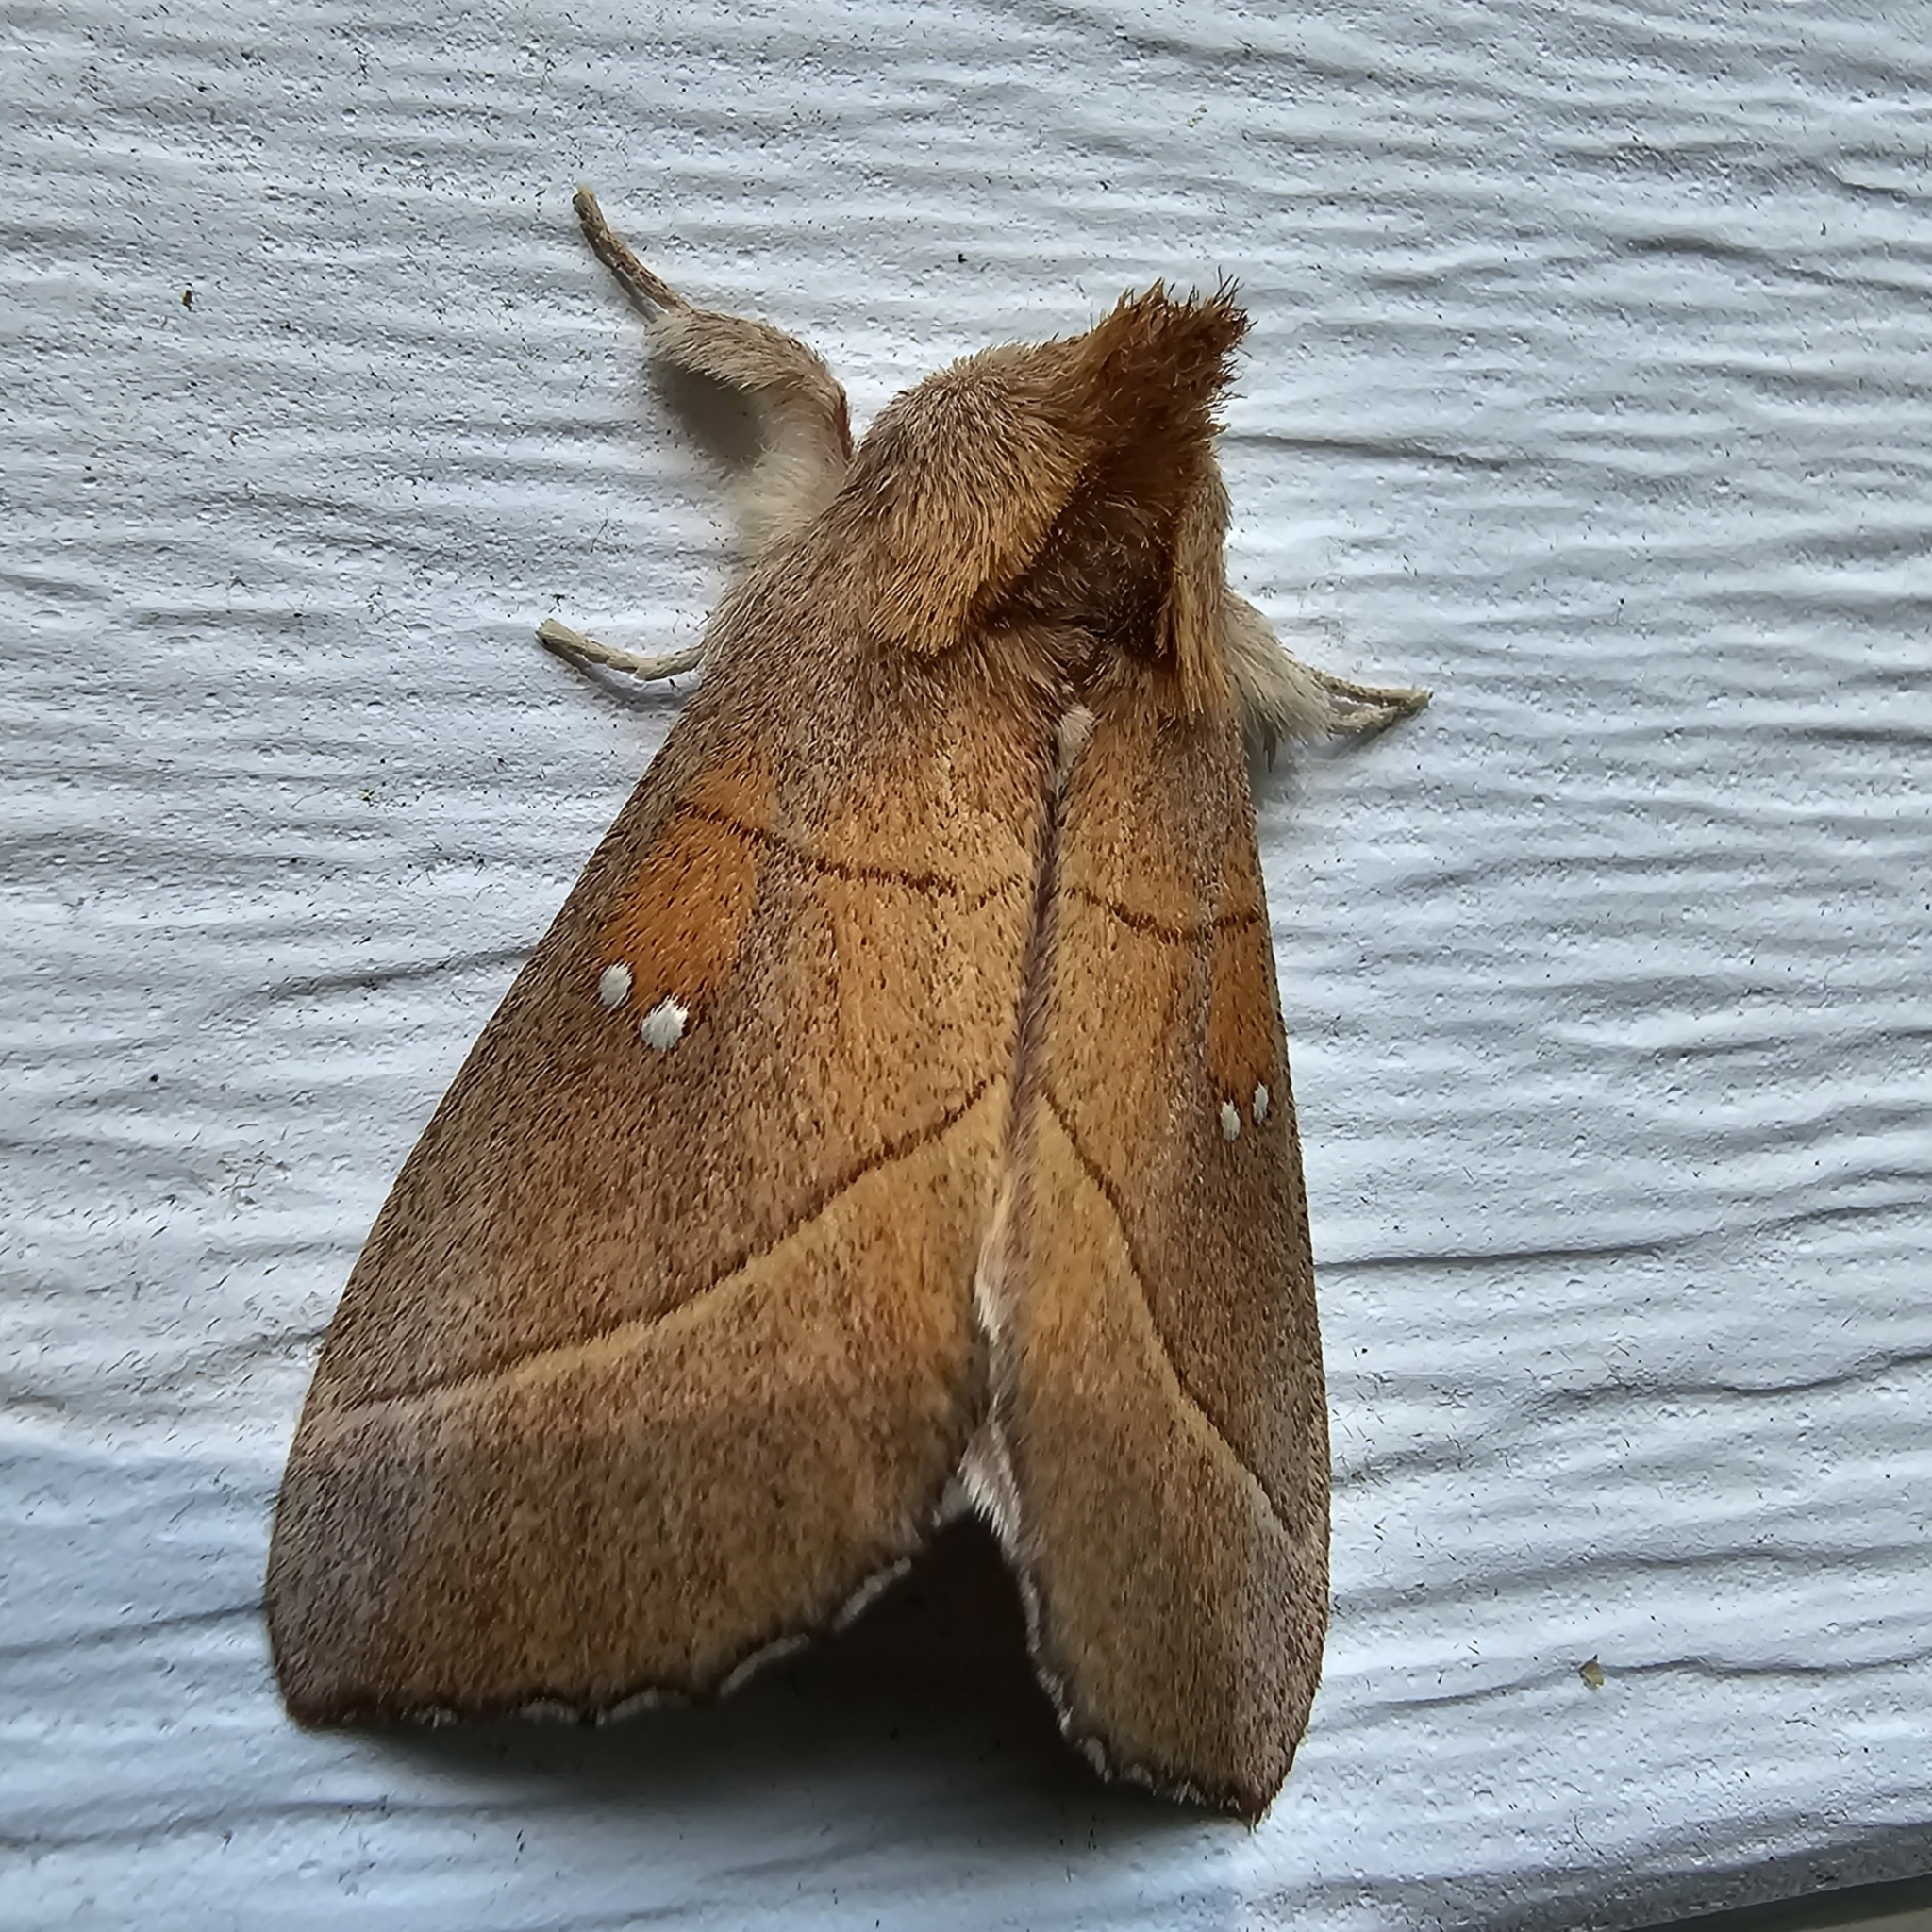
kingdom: Animalia
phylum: Arthropoda
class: Insecta
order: Lepidoptera
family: Notodontidae
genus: Nadata
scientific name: Nadata gibbosa
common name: White-dotted prominent
